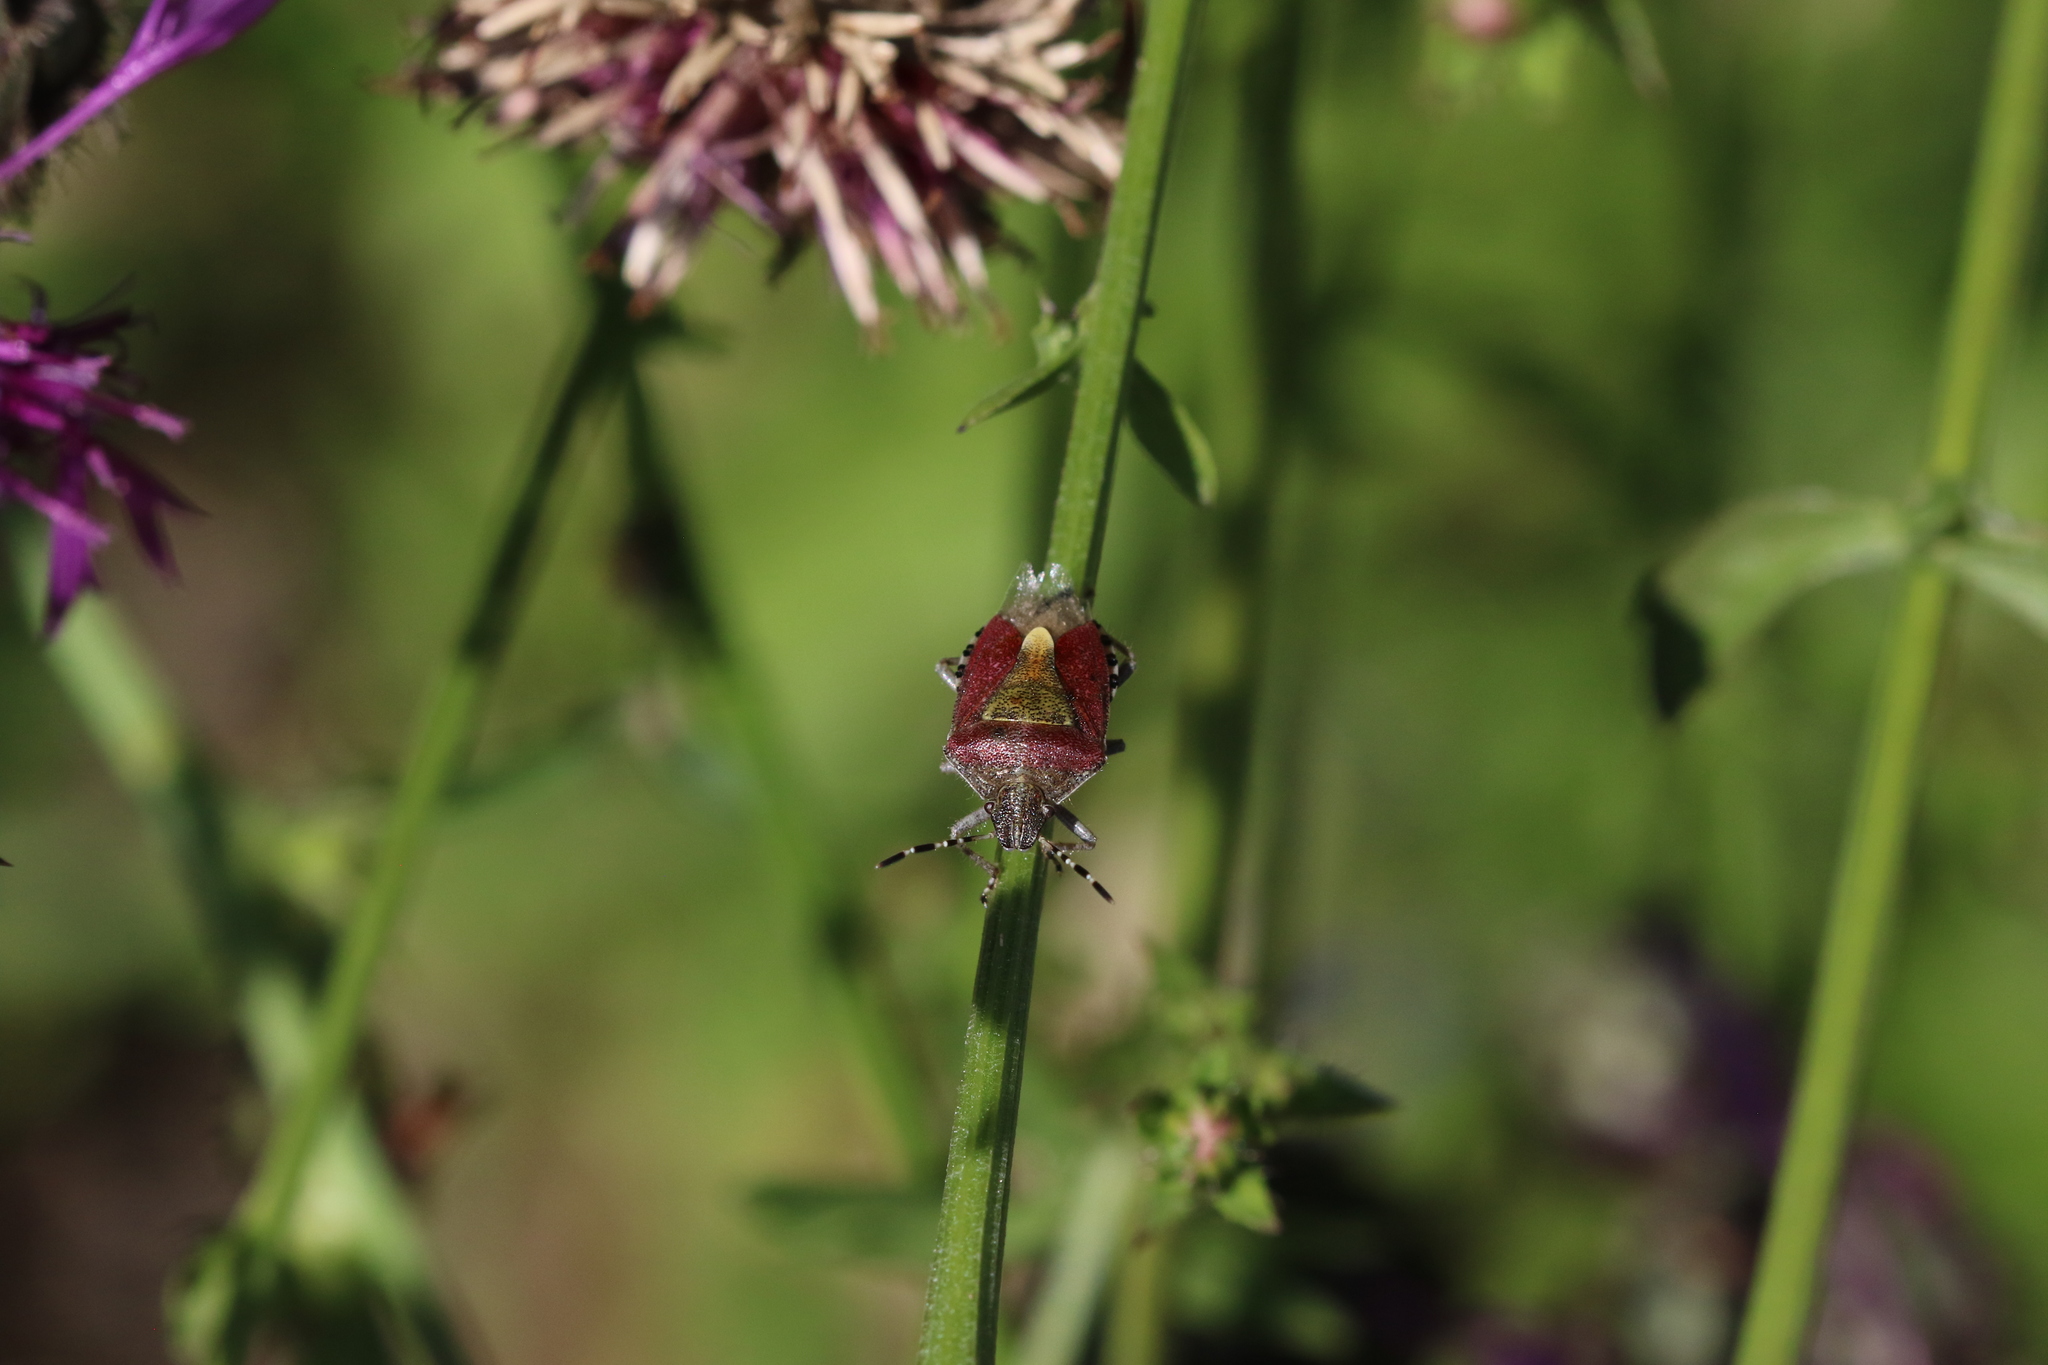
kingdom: Animalia
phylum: Arthropoda
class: Insecta
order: Hemiptera
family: Pentatomidae
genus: Dolycoris
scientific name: Dolycoris baccarum
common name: Sloe bug
